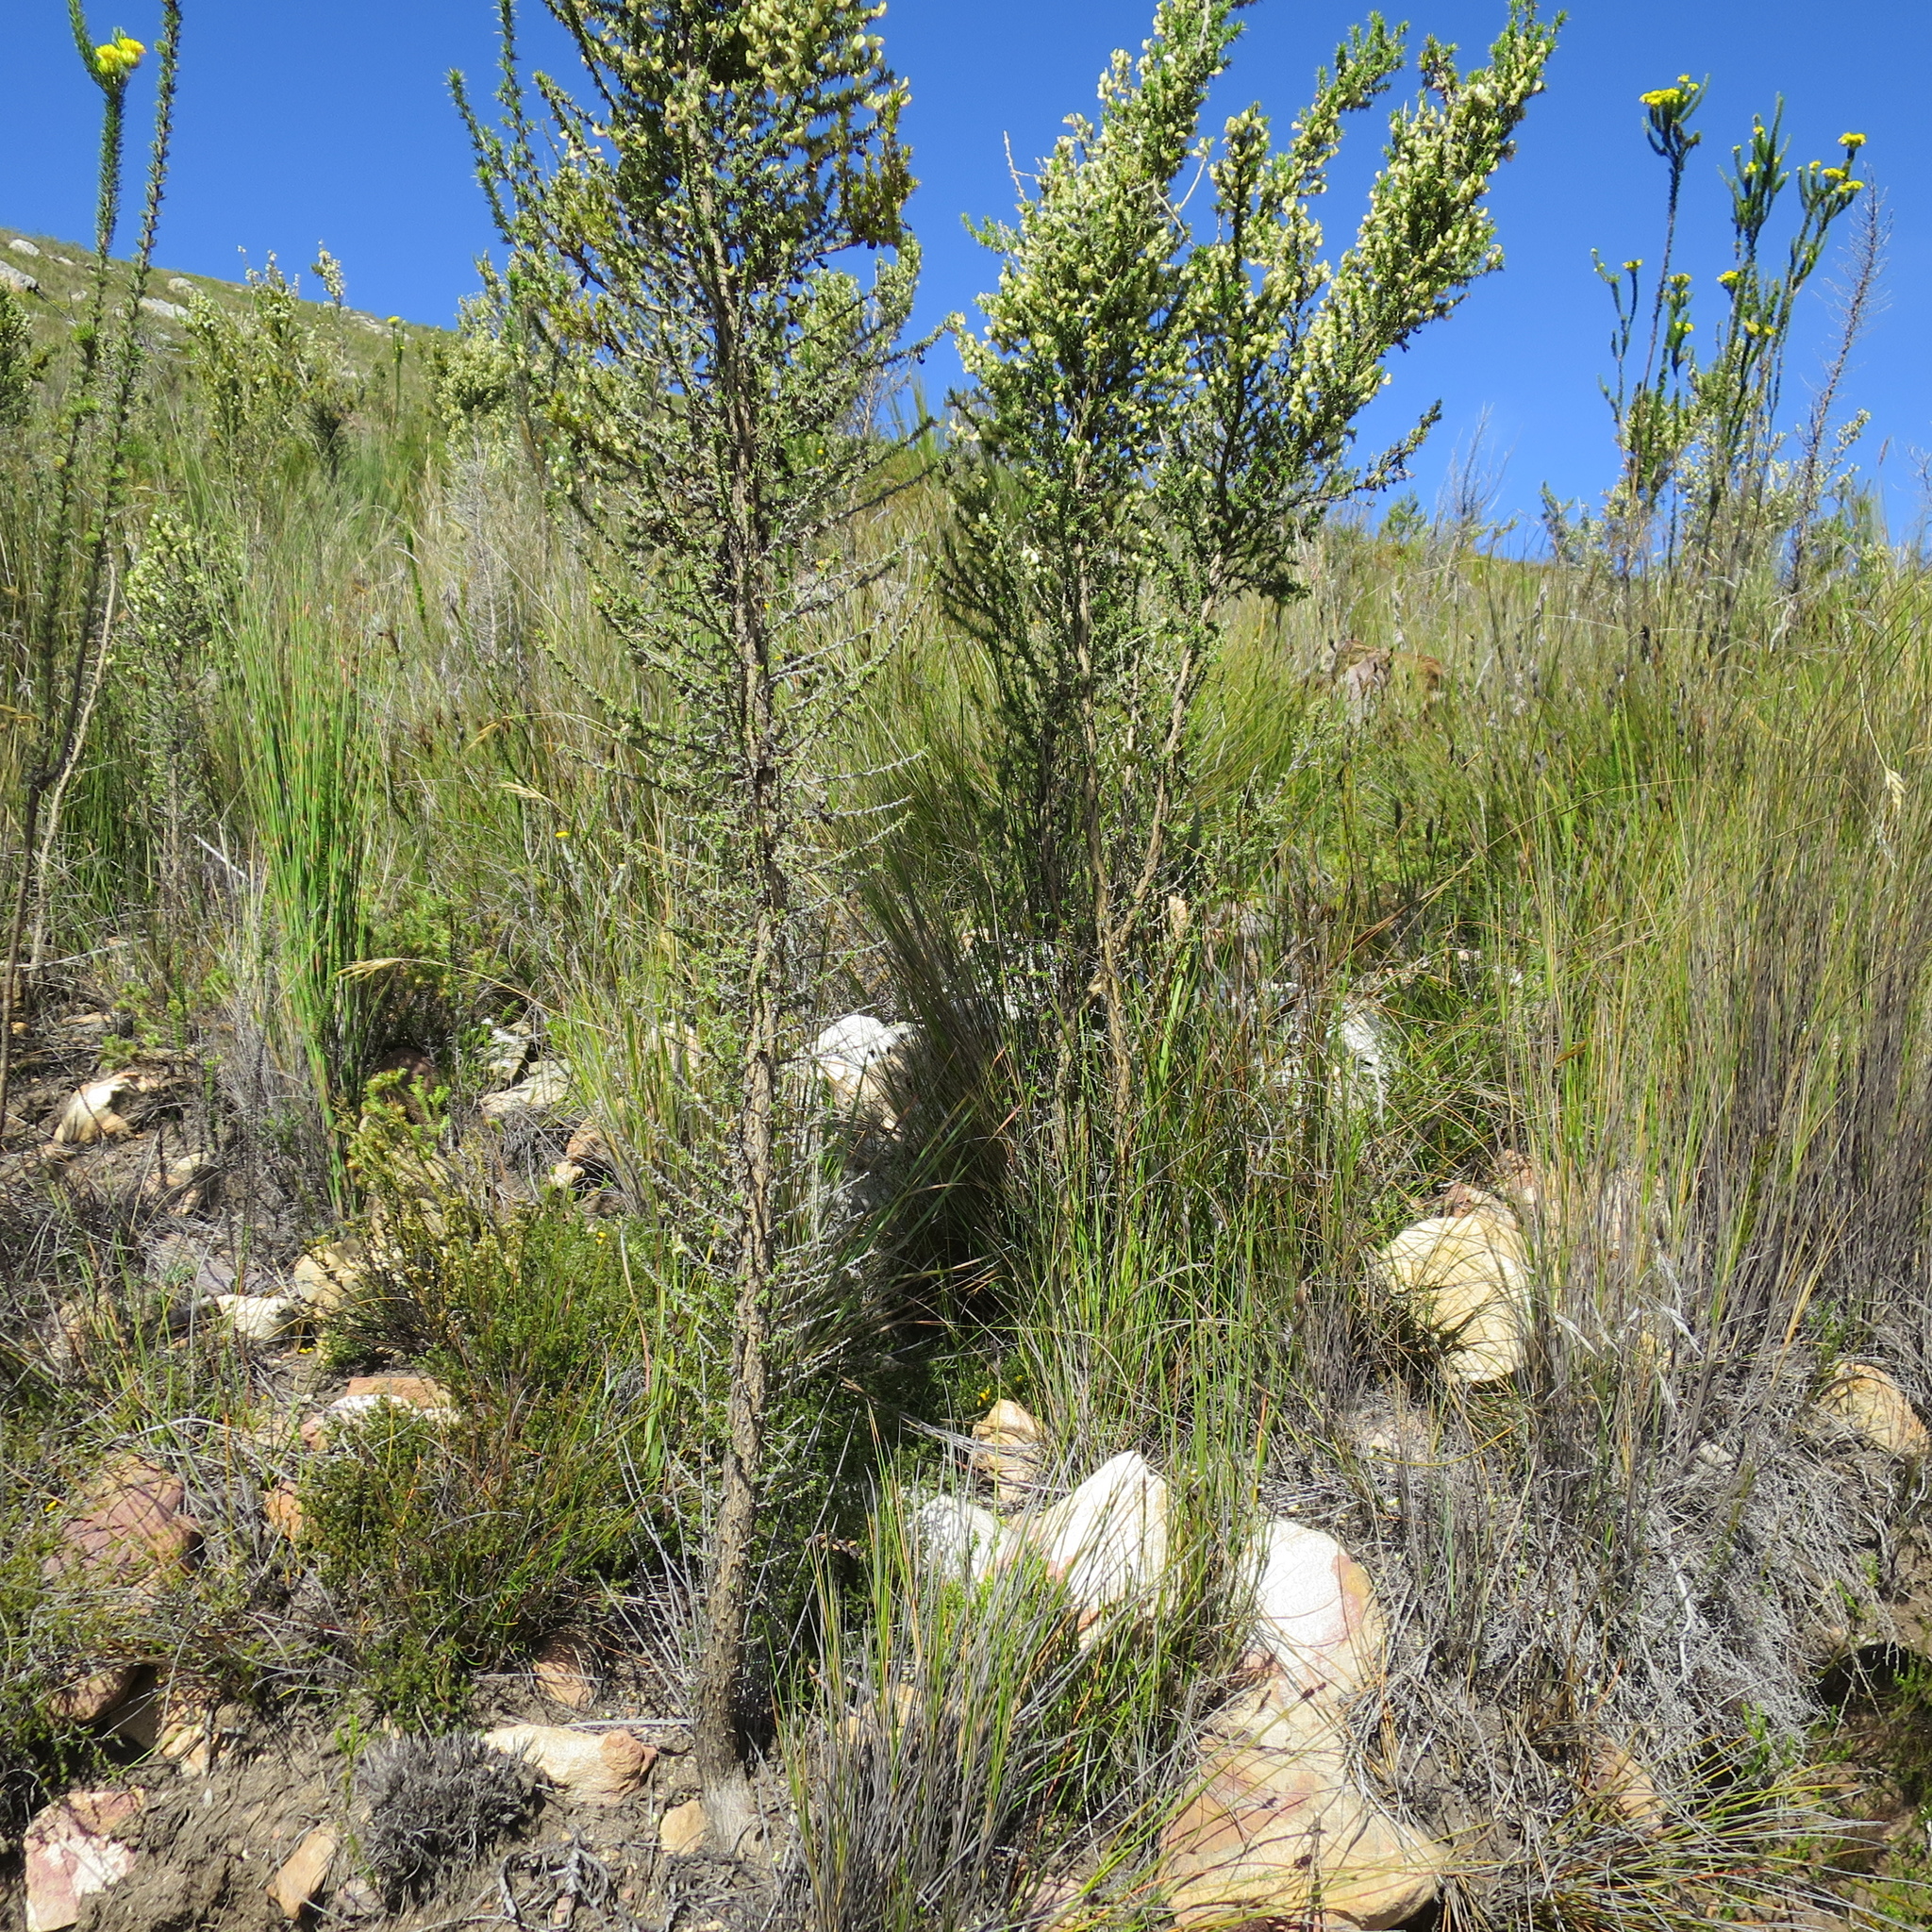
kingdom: Plantae
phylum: Tracheophyta
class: Magnoliopsida
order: Fabales
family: Fabaceae
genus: Aspalathus
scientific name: Aspalathus collina
